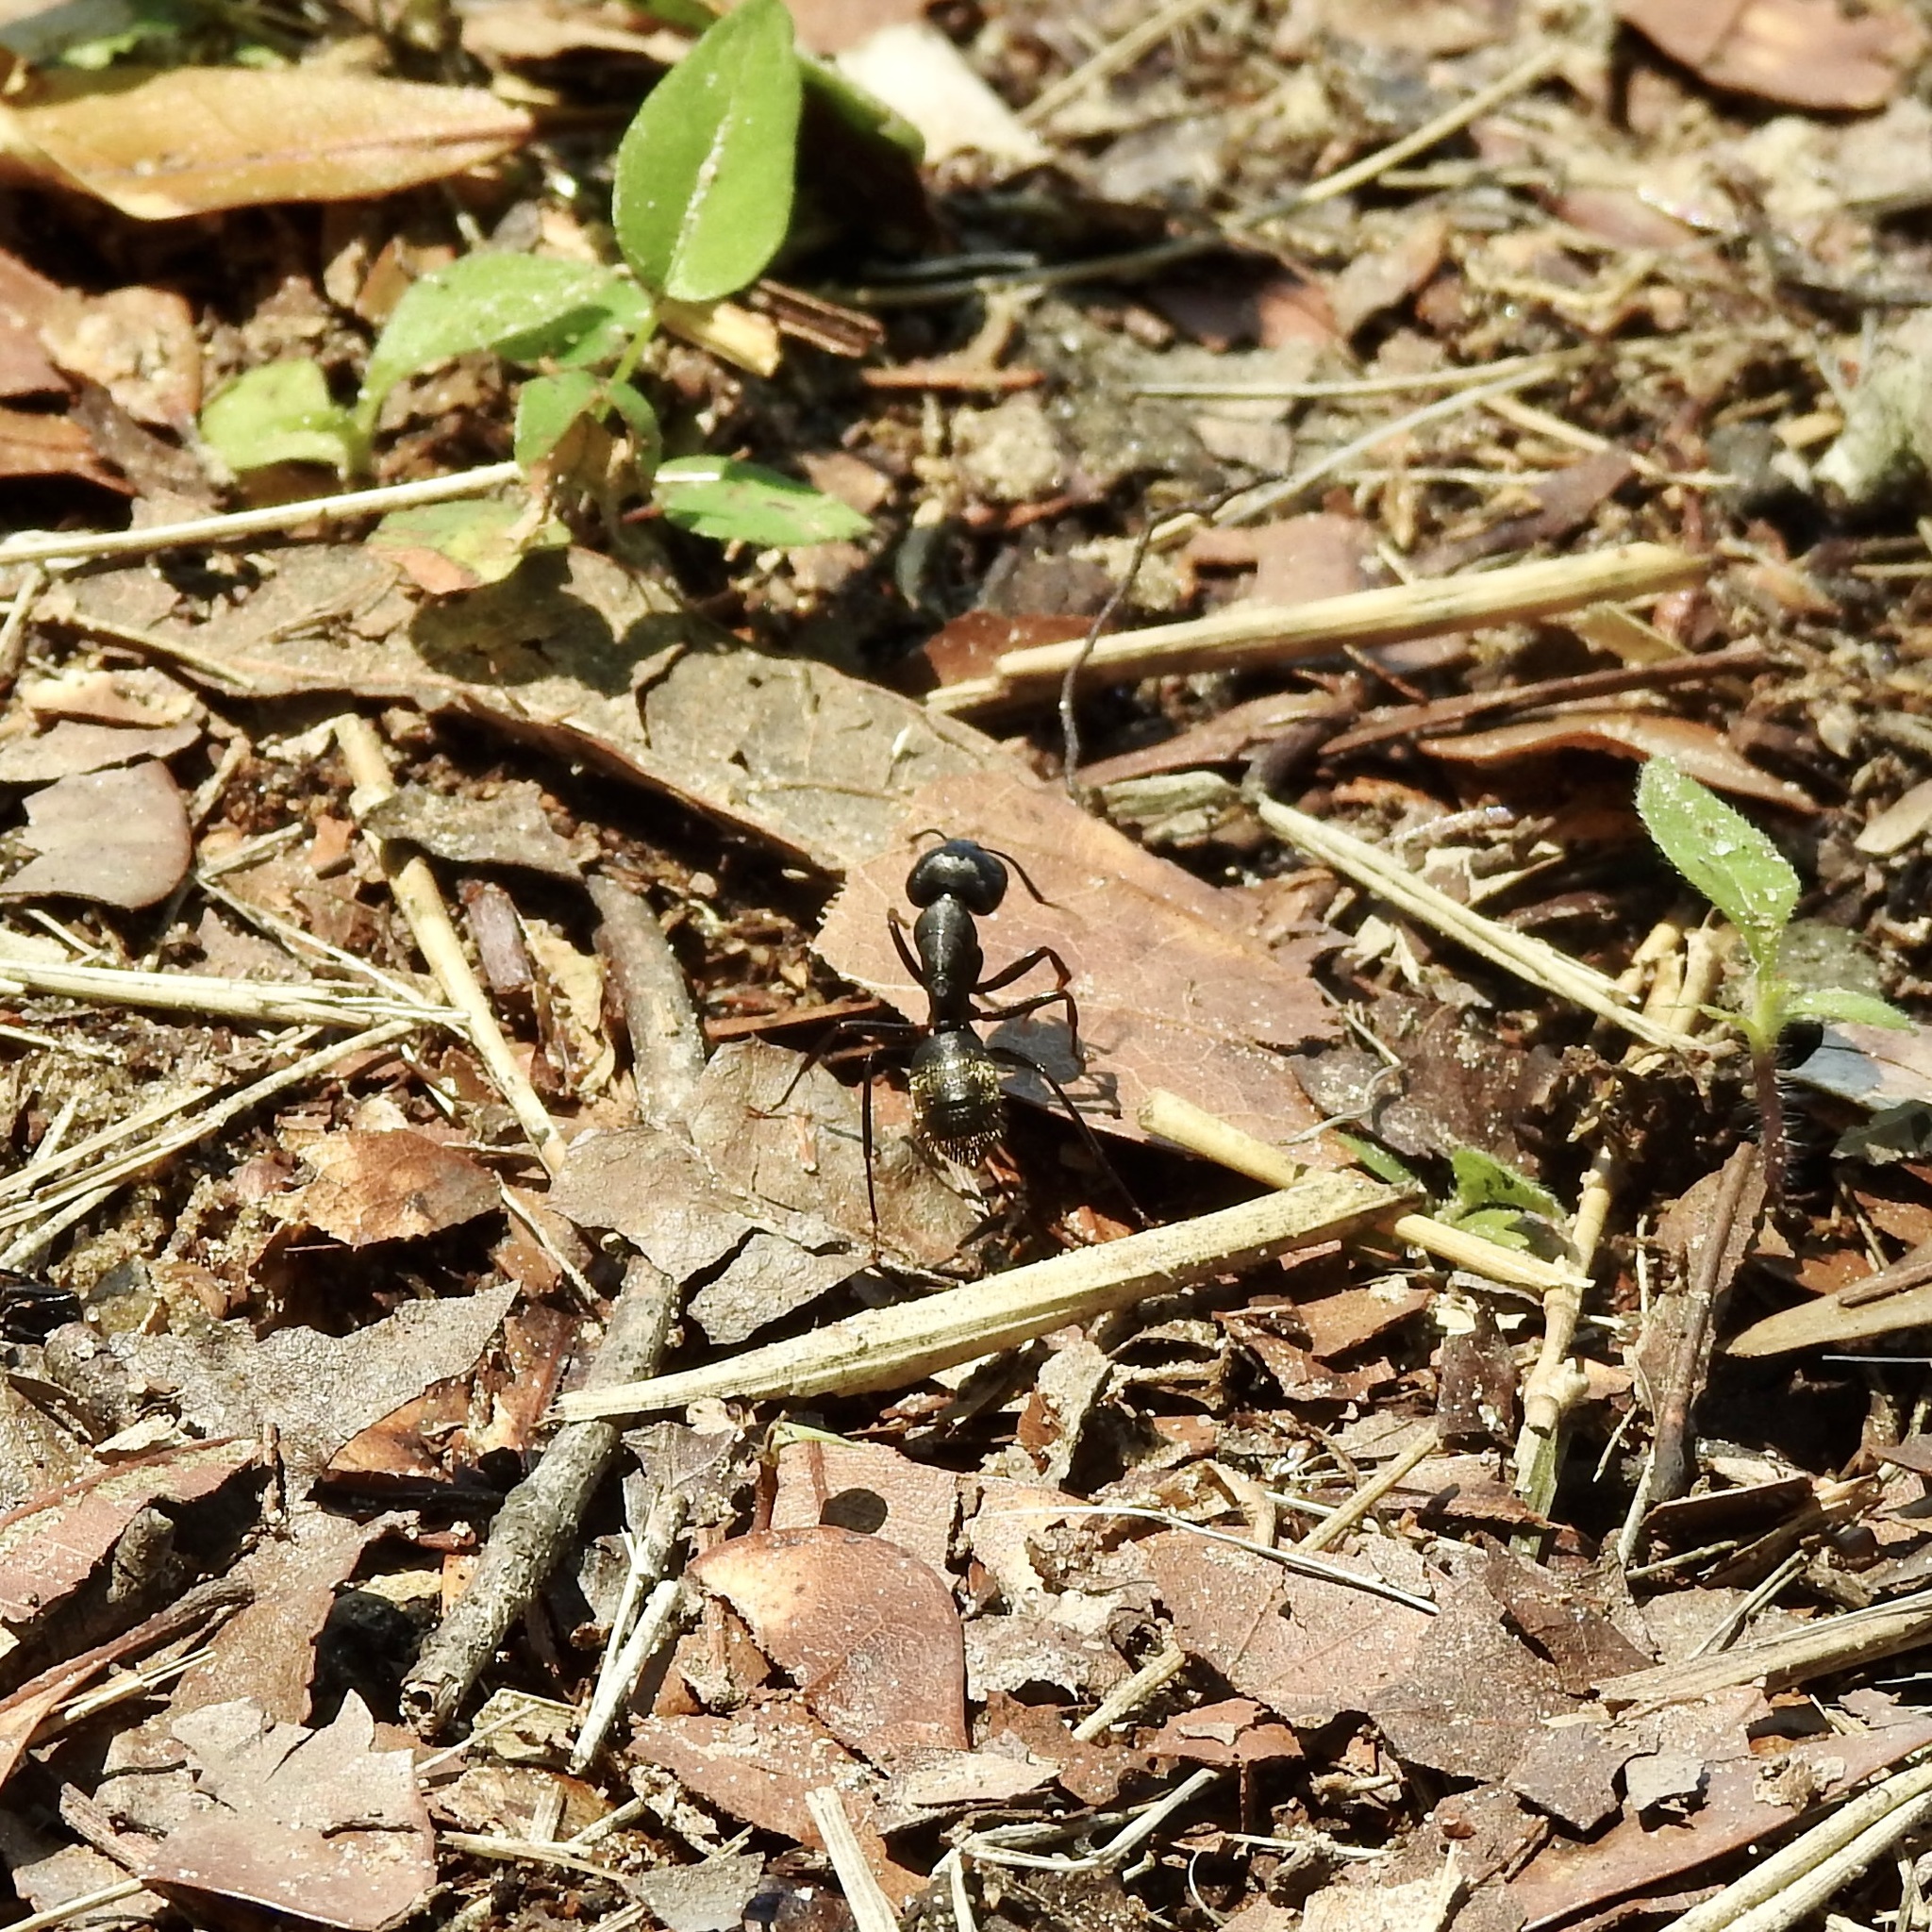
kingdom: Animalia
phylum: Arthropoda
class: Insecta
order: Hymenoptera
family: Formicidae
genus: Camponotus
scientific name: Camponotus pennsylvanicus
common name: Black carpenter ant
